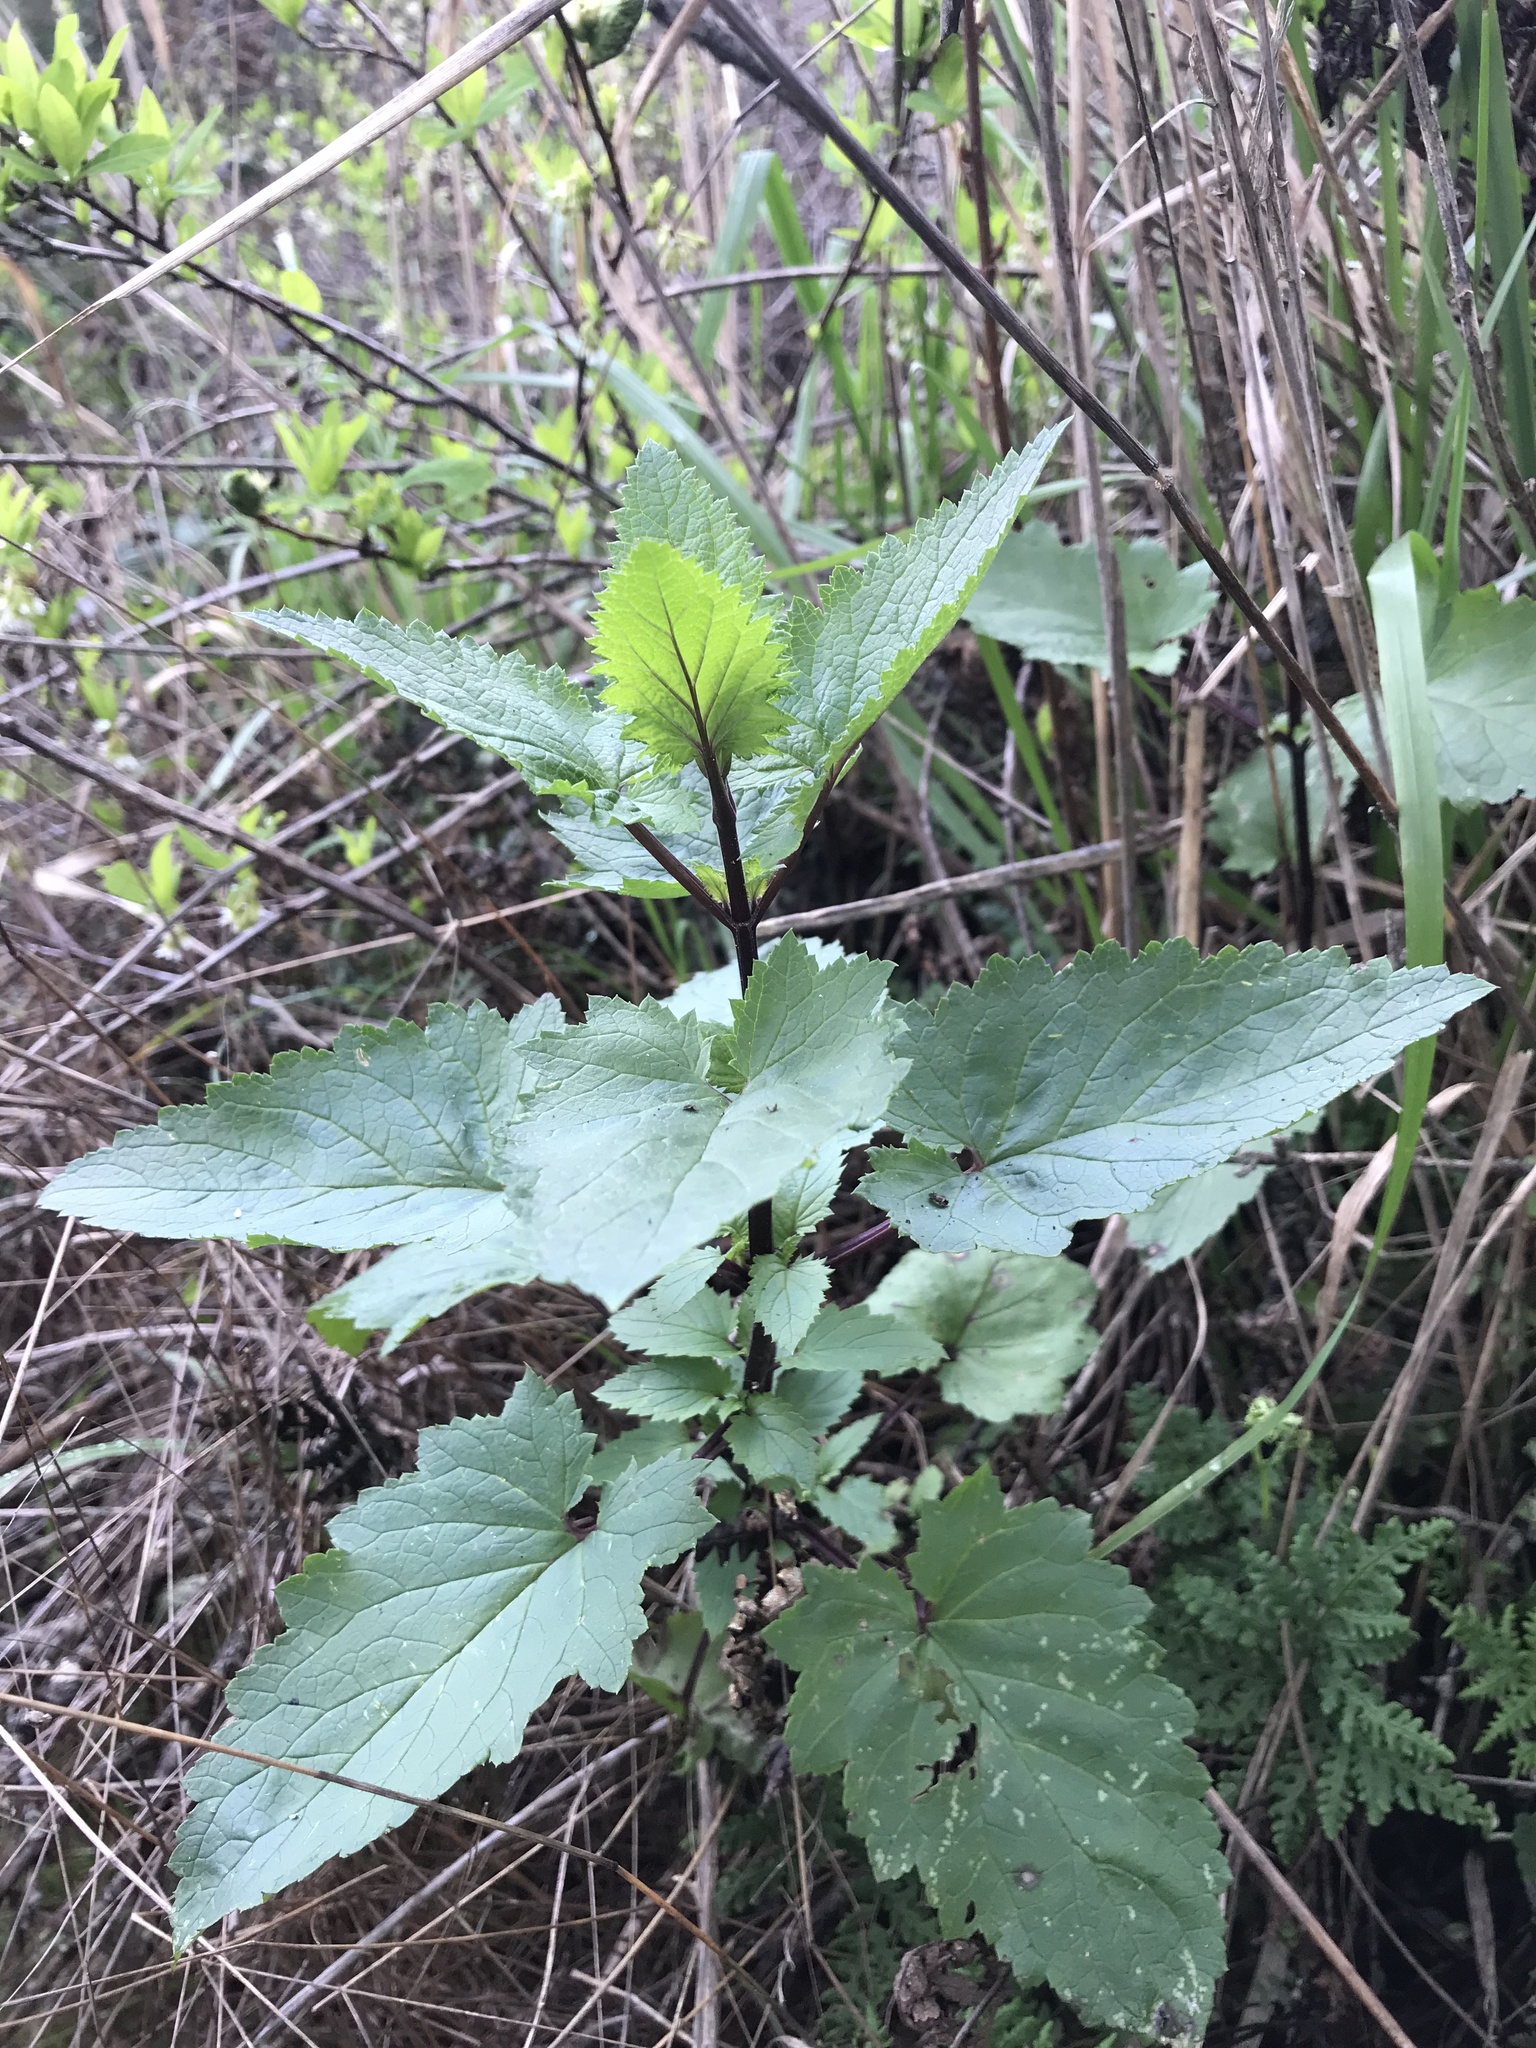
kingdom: Plantae
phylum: Tracheophyta
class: Magnoliopsida
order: Lamiales
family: Scrophulariaceae
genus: Scrophularia
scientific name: Scrophularia californica
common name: California figwort
